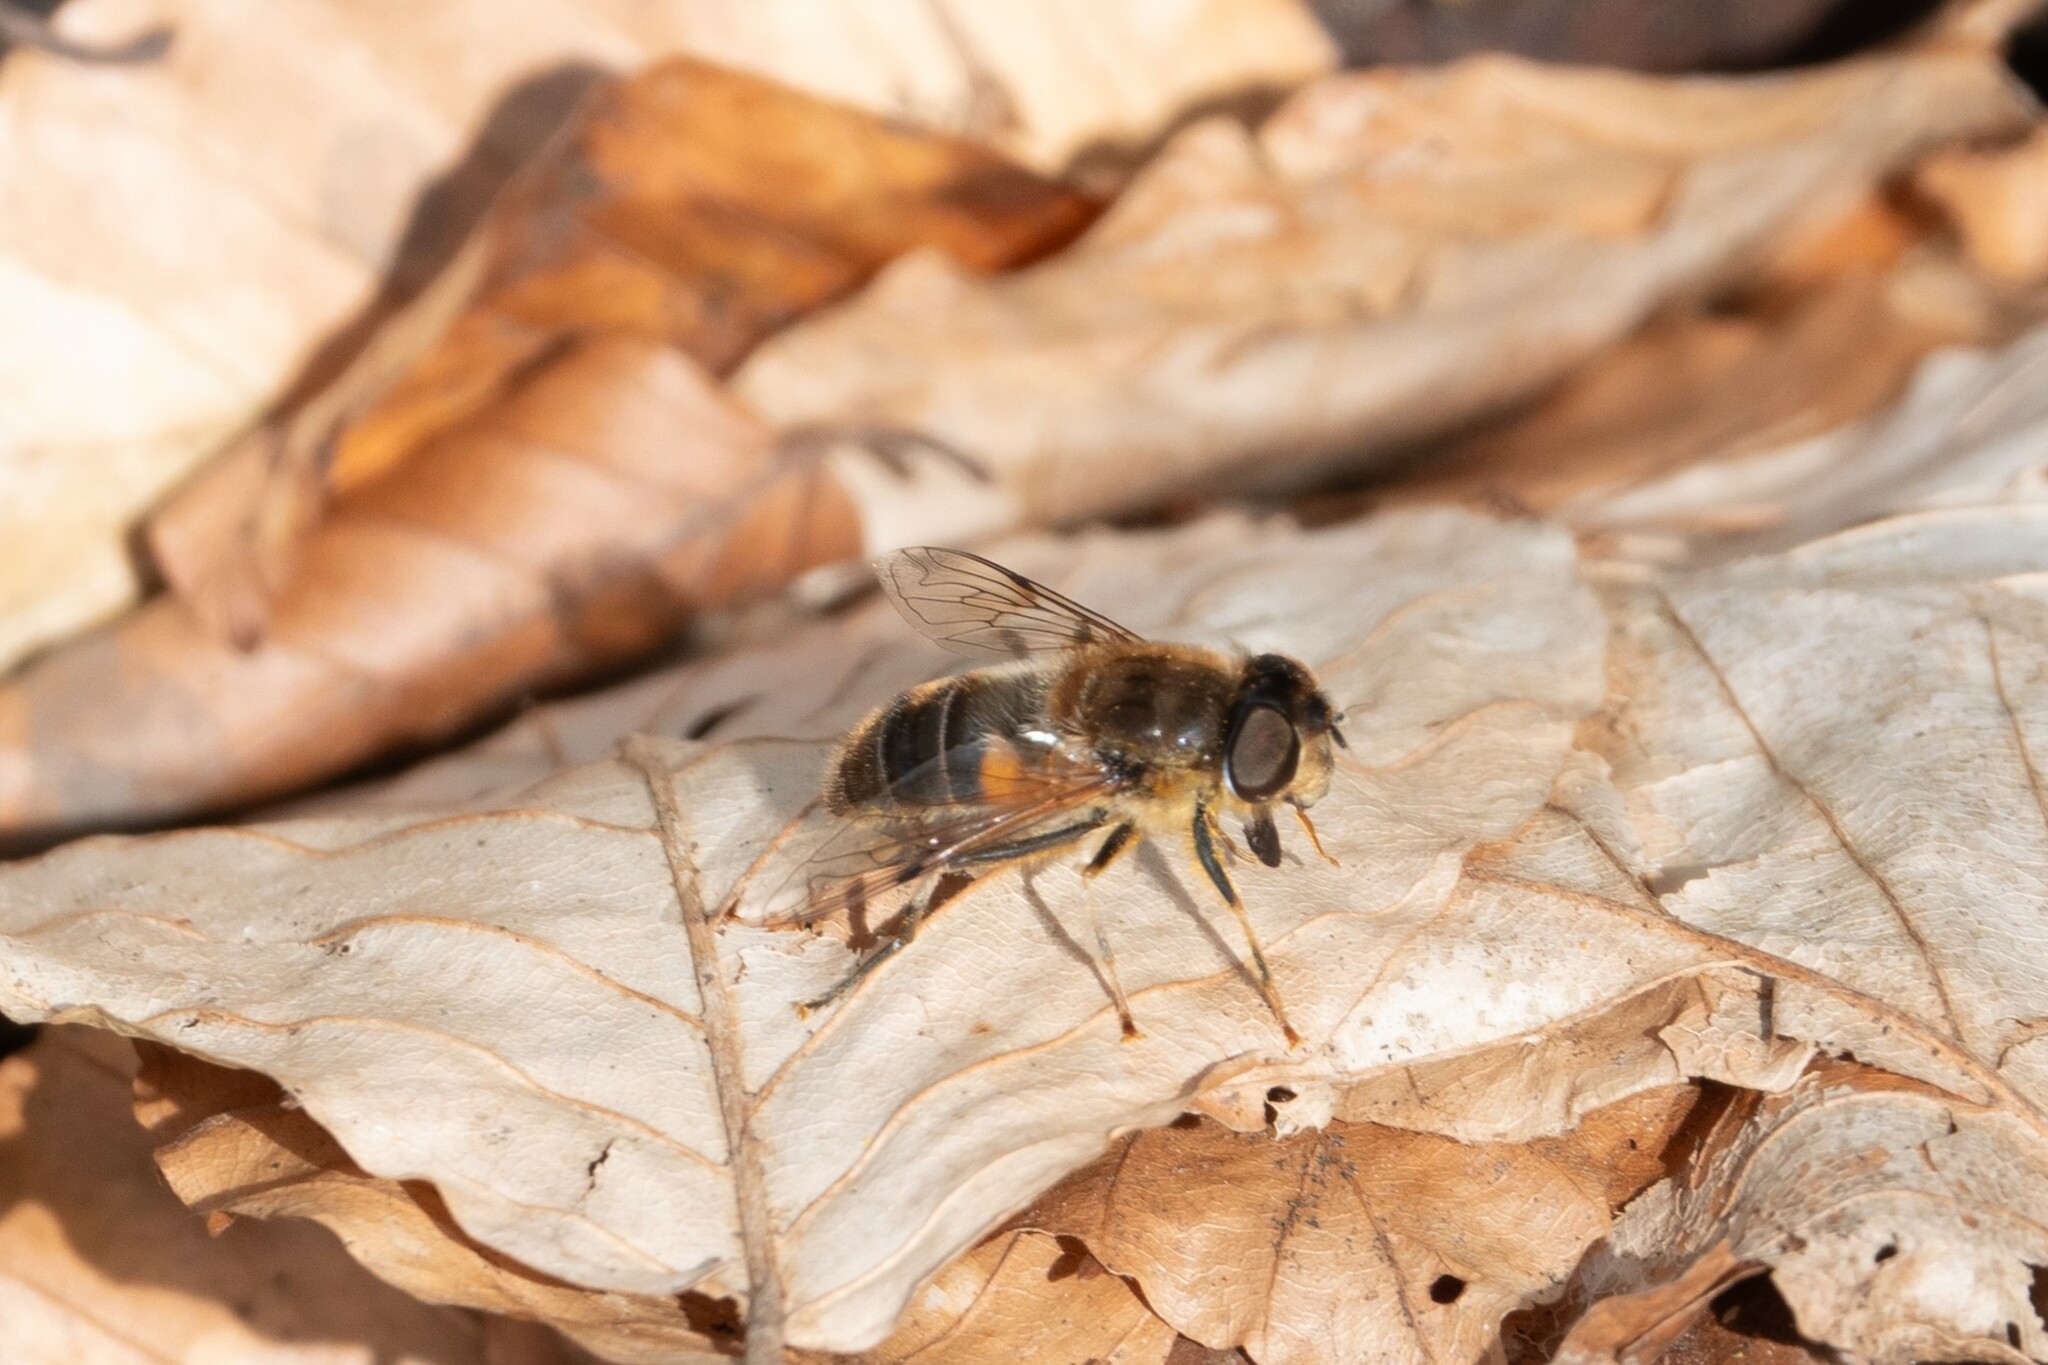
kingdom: Animalia
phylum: Arthropoda
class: Insecta
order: Diptera
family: Syrphidae
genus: Eristalis
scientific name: Eristalis pertinax
